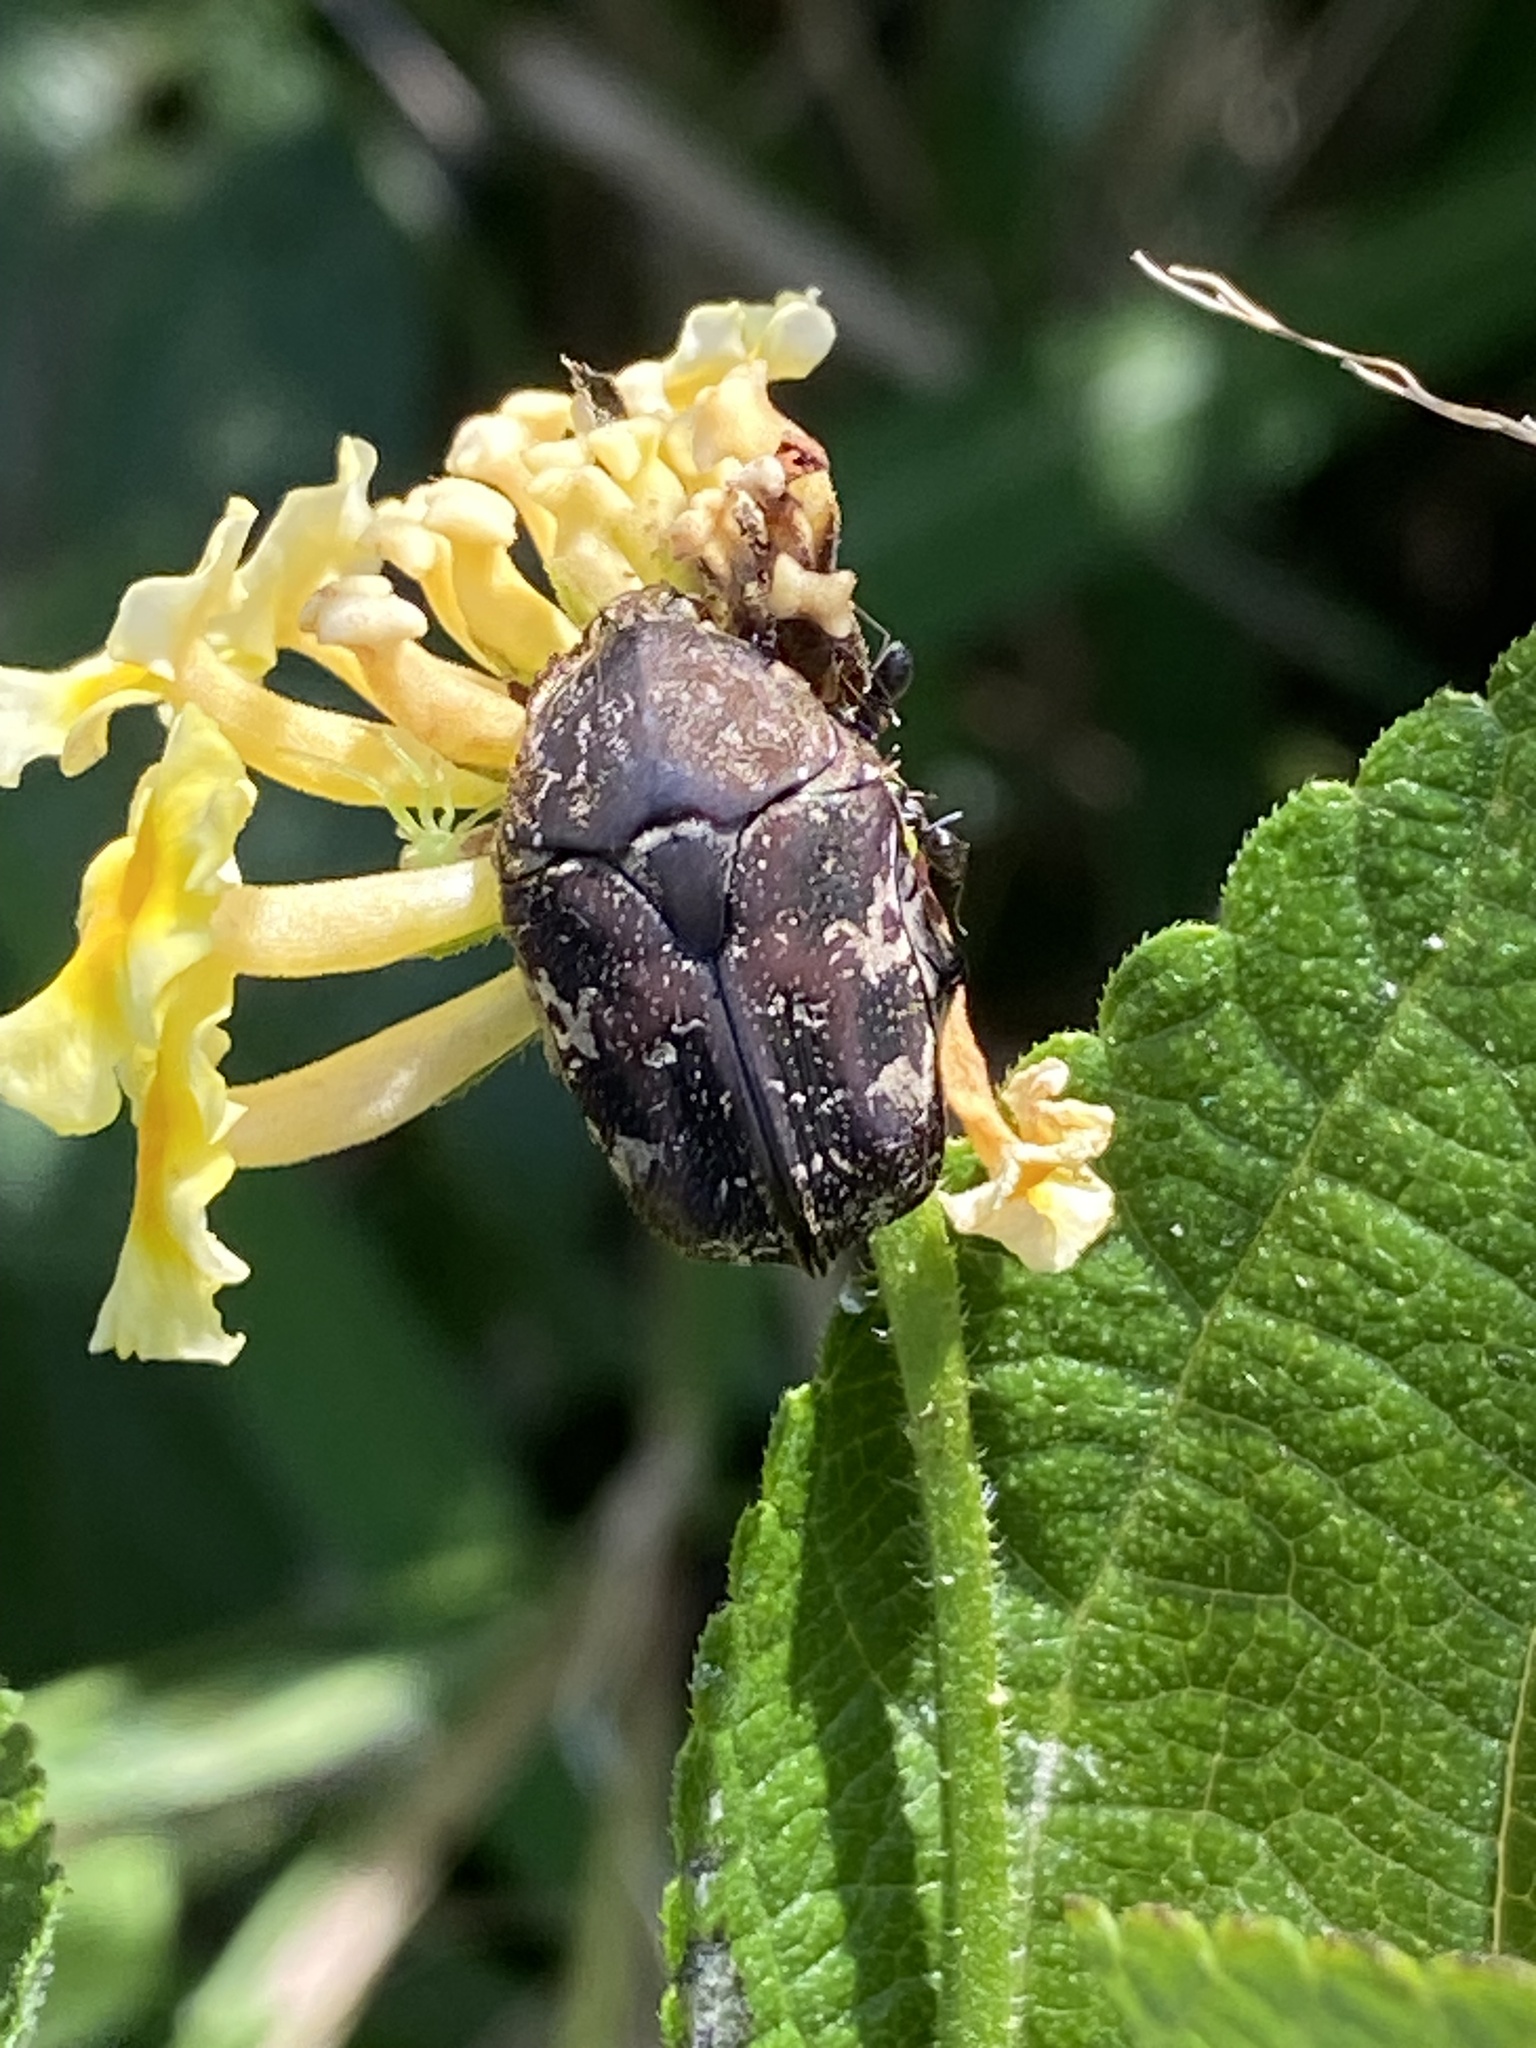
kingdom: Animalia
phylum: Arthropoda
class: Insecta
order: Coleoptera
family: Scarabaeidae
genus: Protaetia
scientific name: Protaetia fusca
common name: Mango flower beetle
